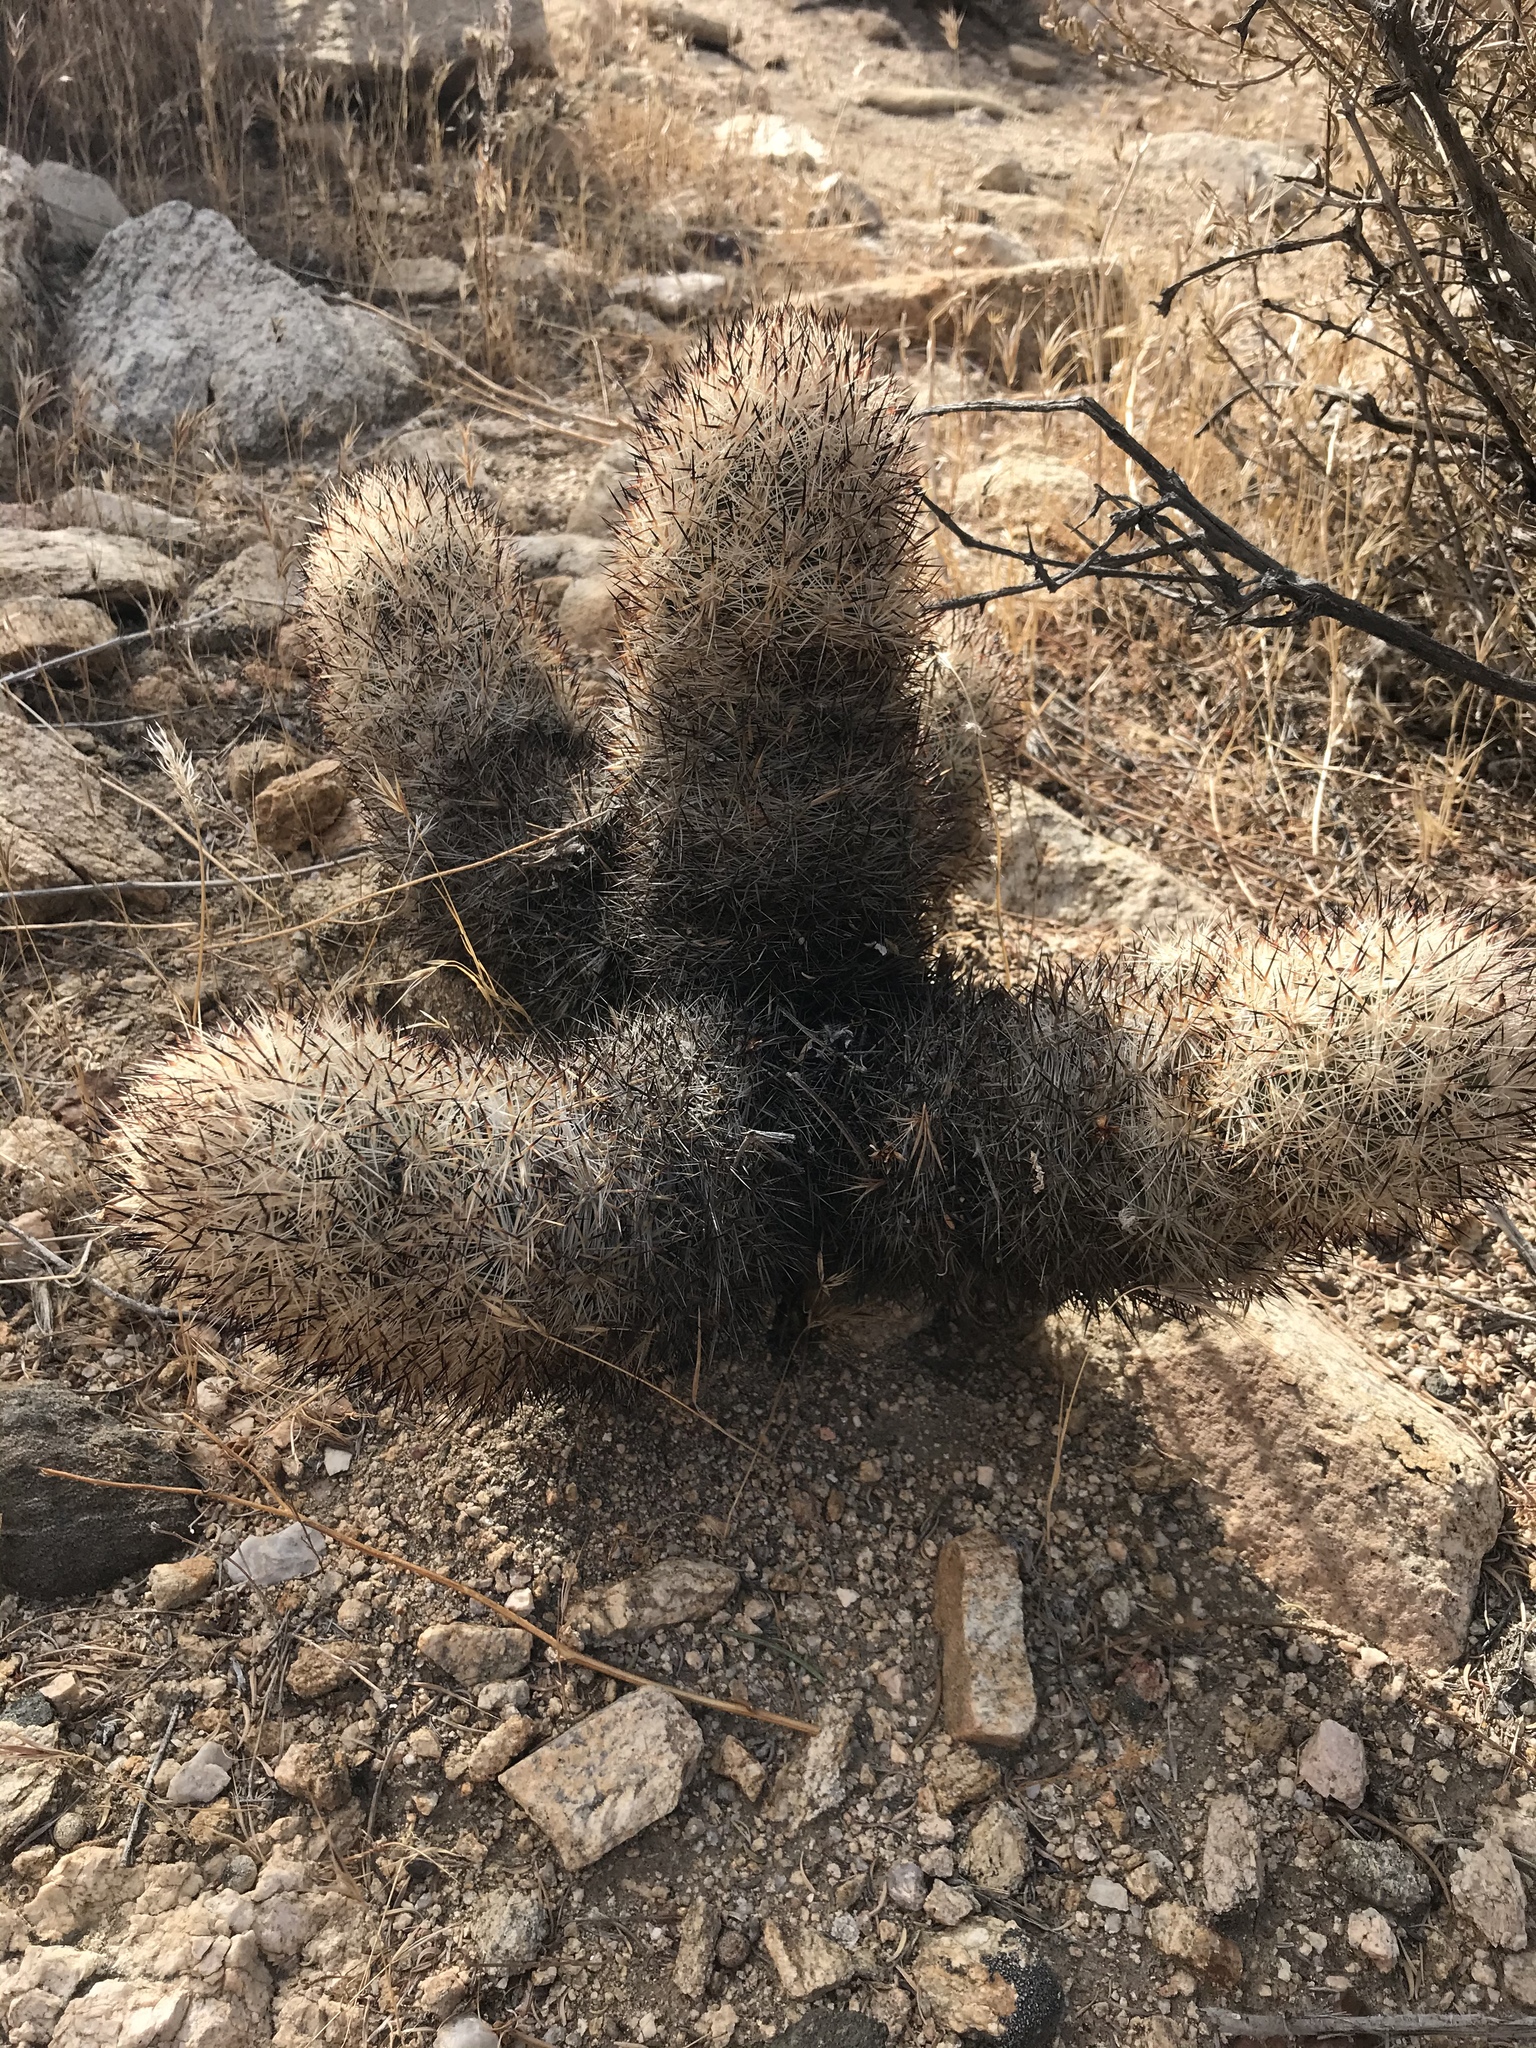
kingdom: Plantae
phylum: Tracheophyta
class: Magnoliopsida
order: Caryophyllales
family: Cactaceae
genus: Pelecyphora
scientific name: Pelecyphora alversonii
